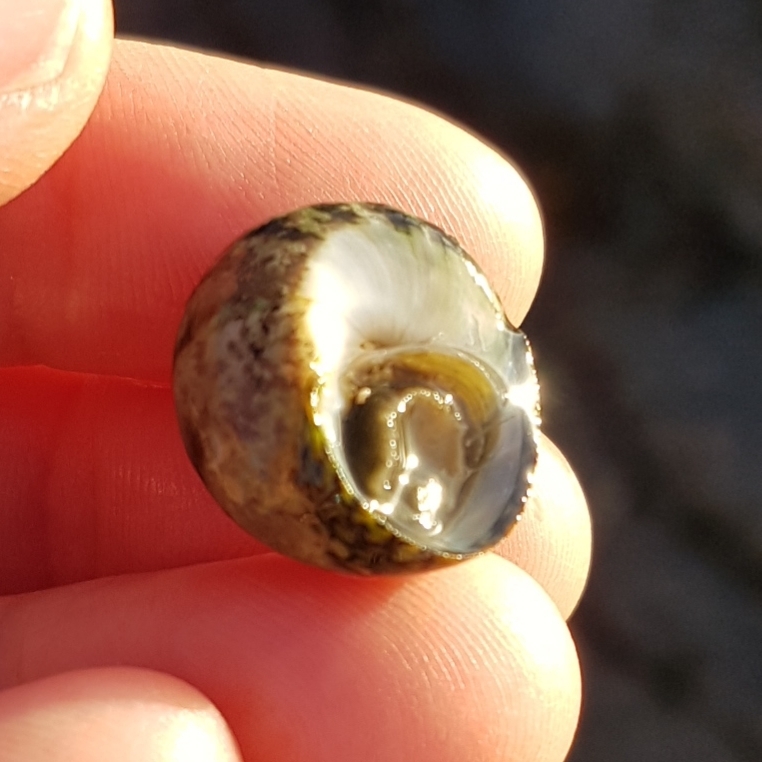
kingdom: Animalia
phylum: Mollusca
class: Gastropoda
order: Trochida
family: Trochidae
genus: Phorcus
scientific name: Phorcus lineatus
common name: Toothed top shell
